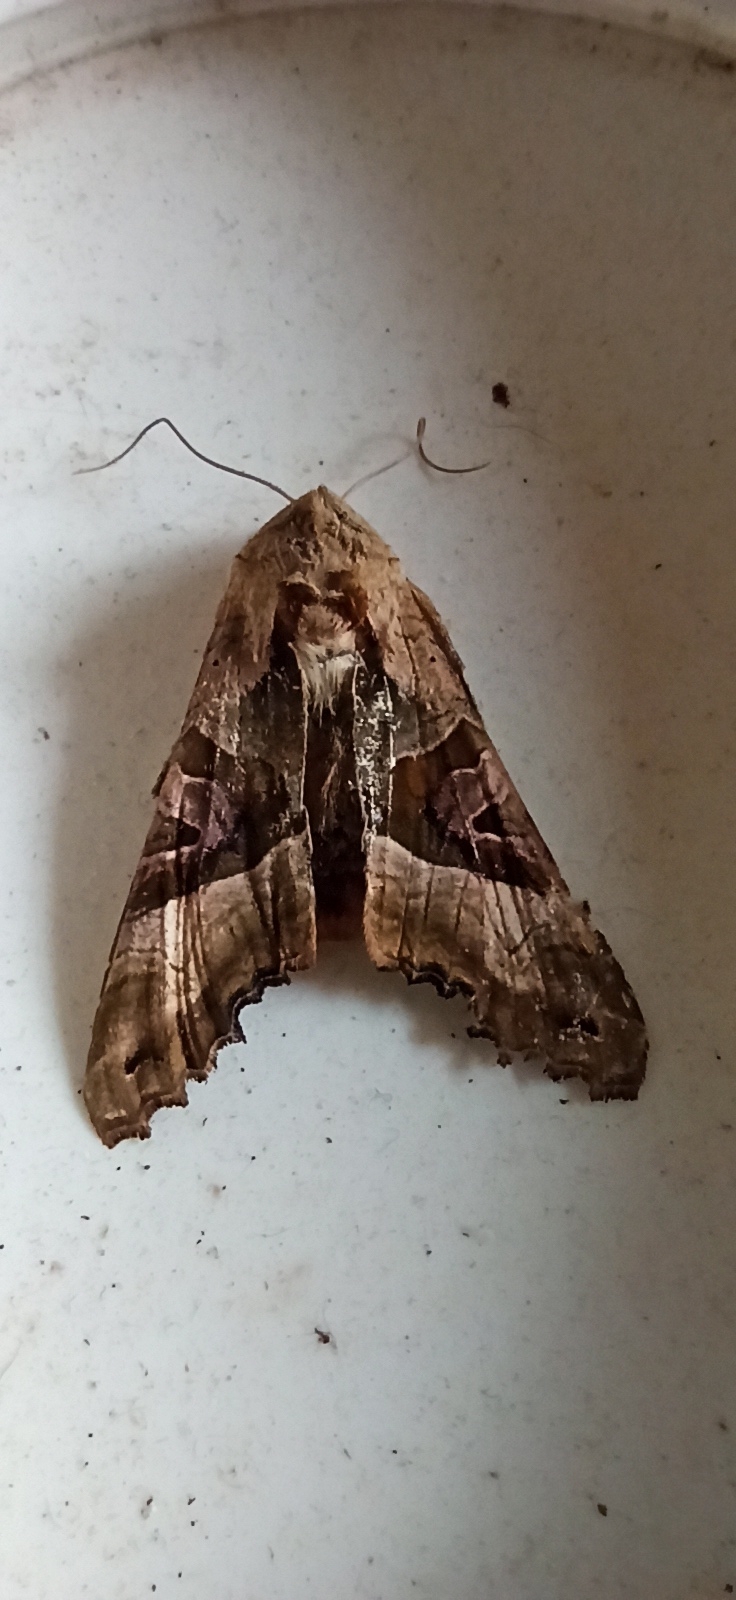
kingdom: Animalia
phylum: Arthropoda
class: Insecta
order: Lepidoptera
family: Noctuidae
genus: Phlogophora
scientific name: Phlogophora meticulosa
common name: Angle shades
